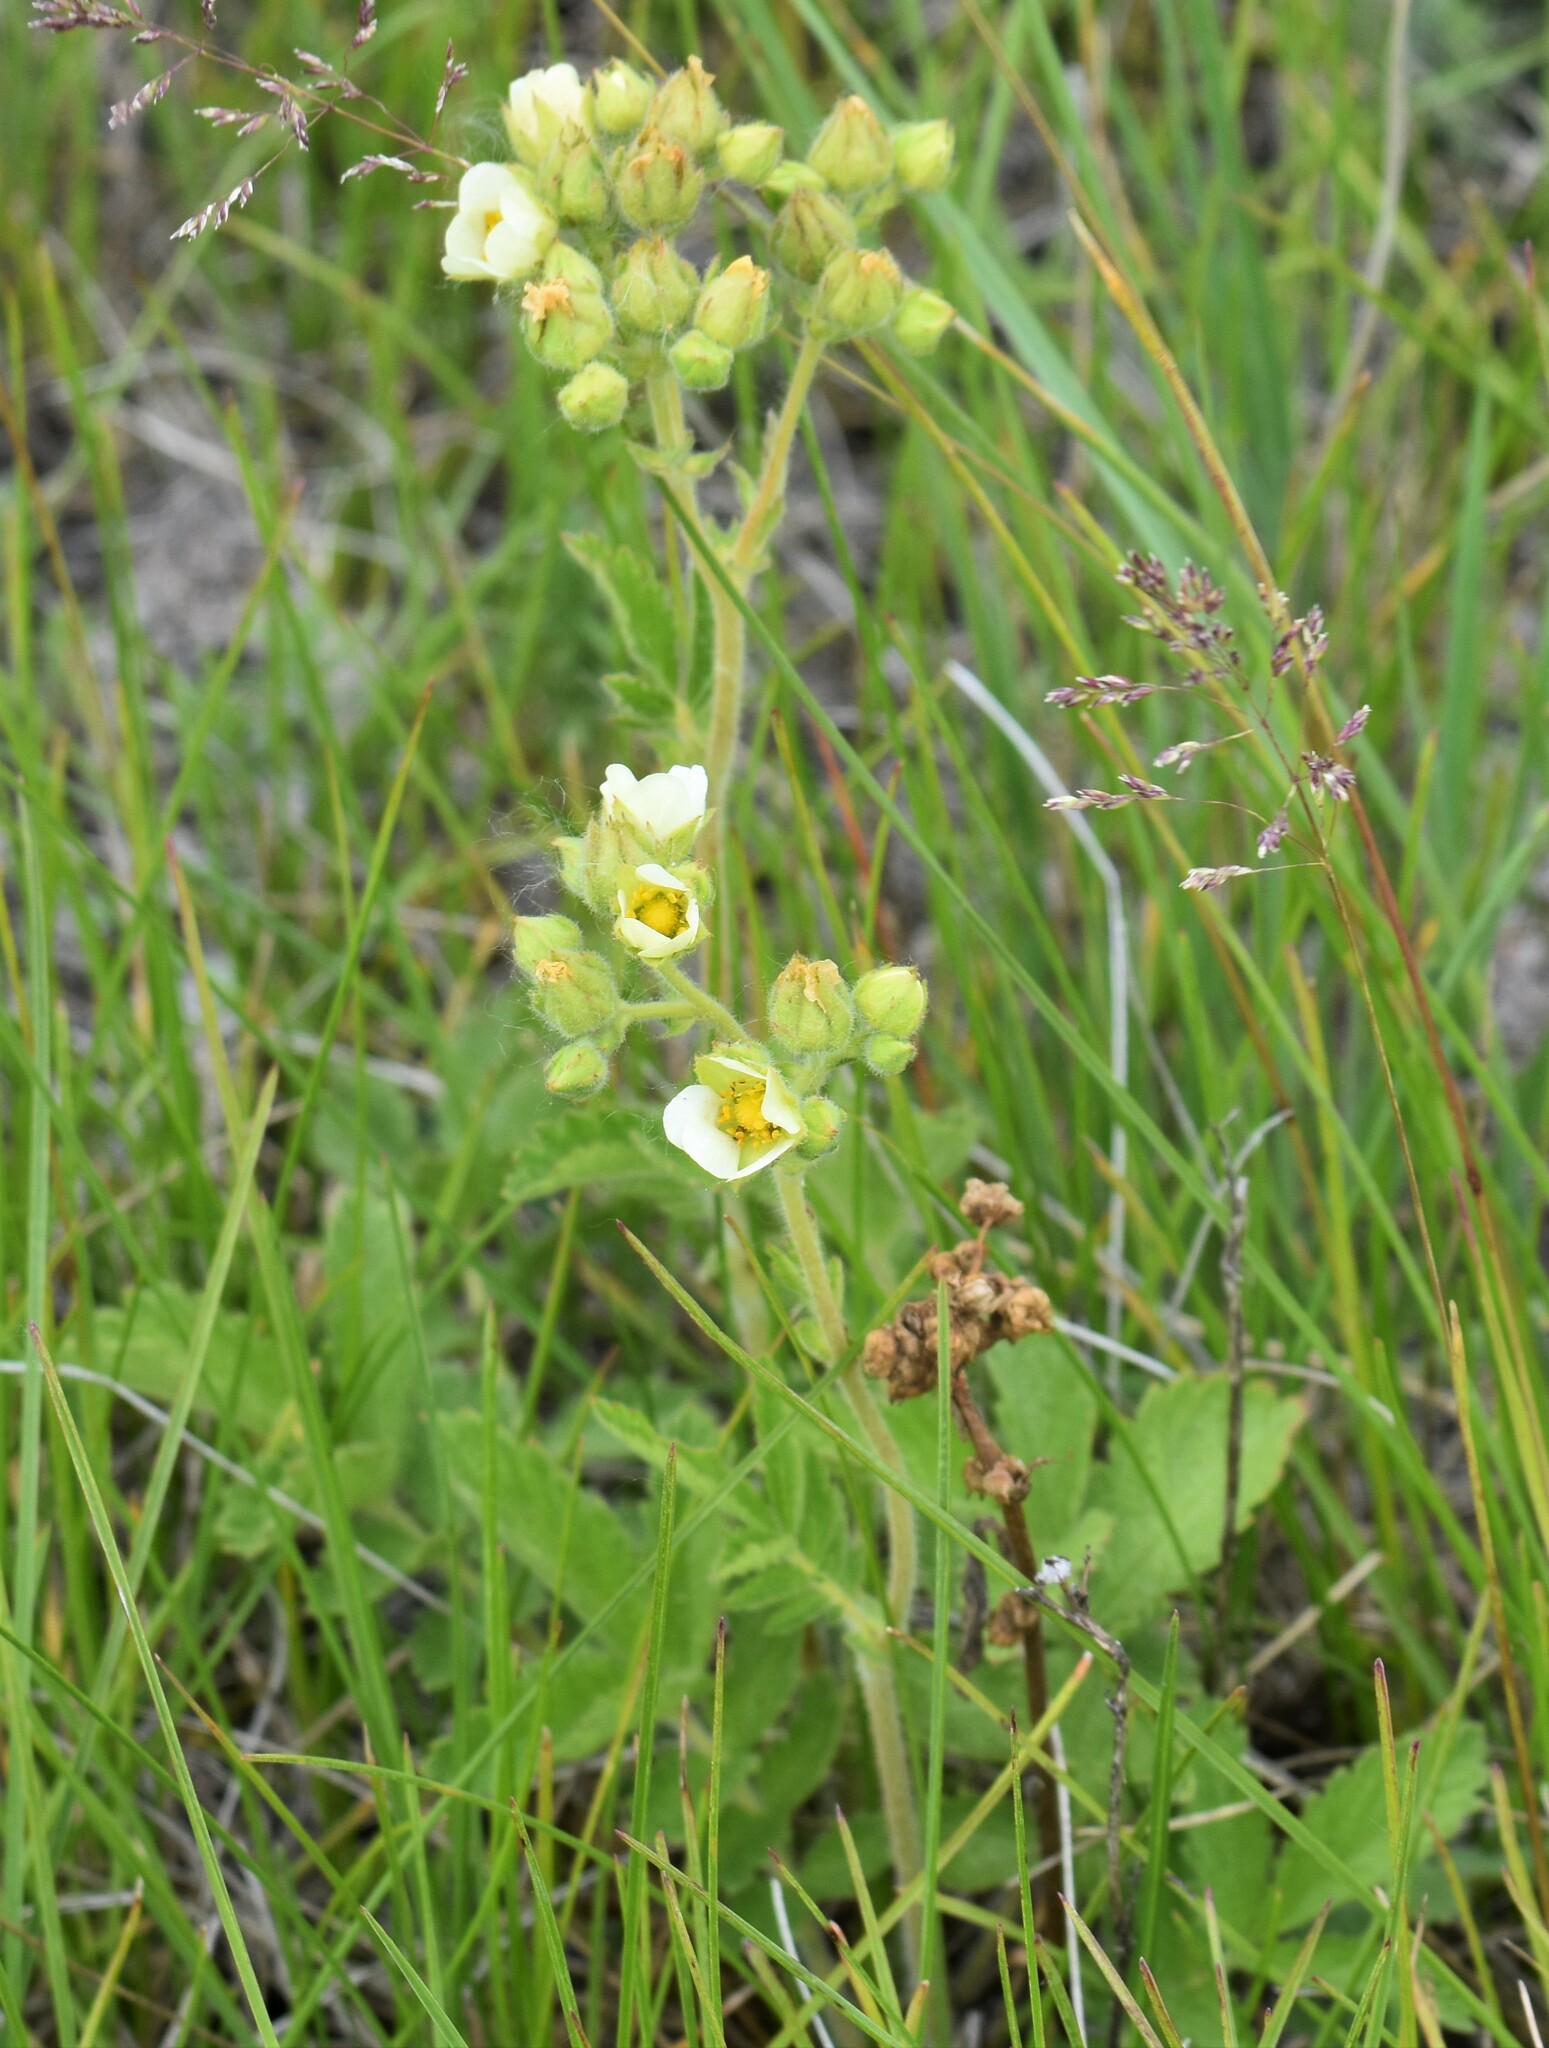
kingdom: Plantae
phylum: Tracheophyta
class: Magnoliopsida
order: Rosales
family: Rosaceae
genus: Drymocallis
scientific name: Drymocallis arguta
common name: Tall cinquefoil
